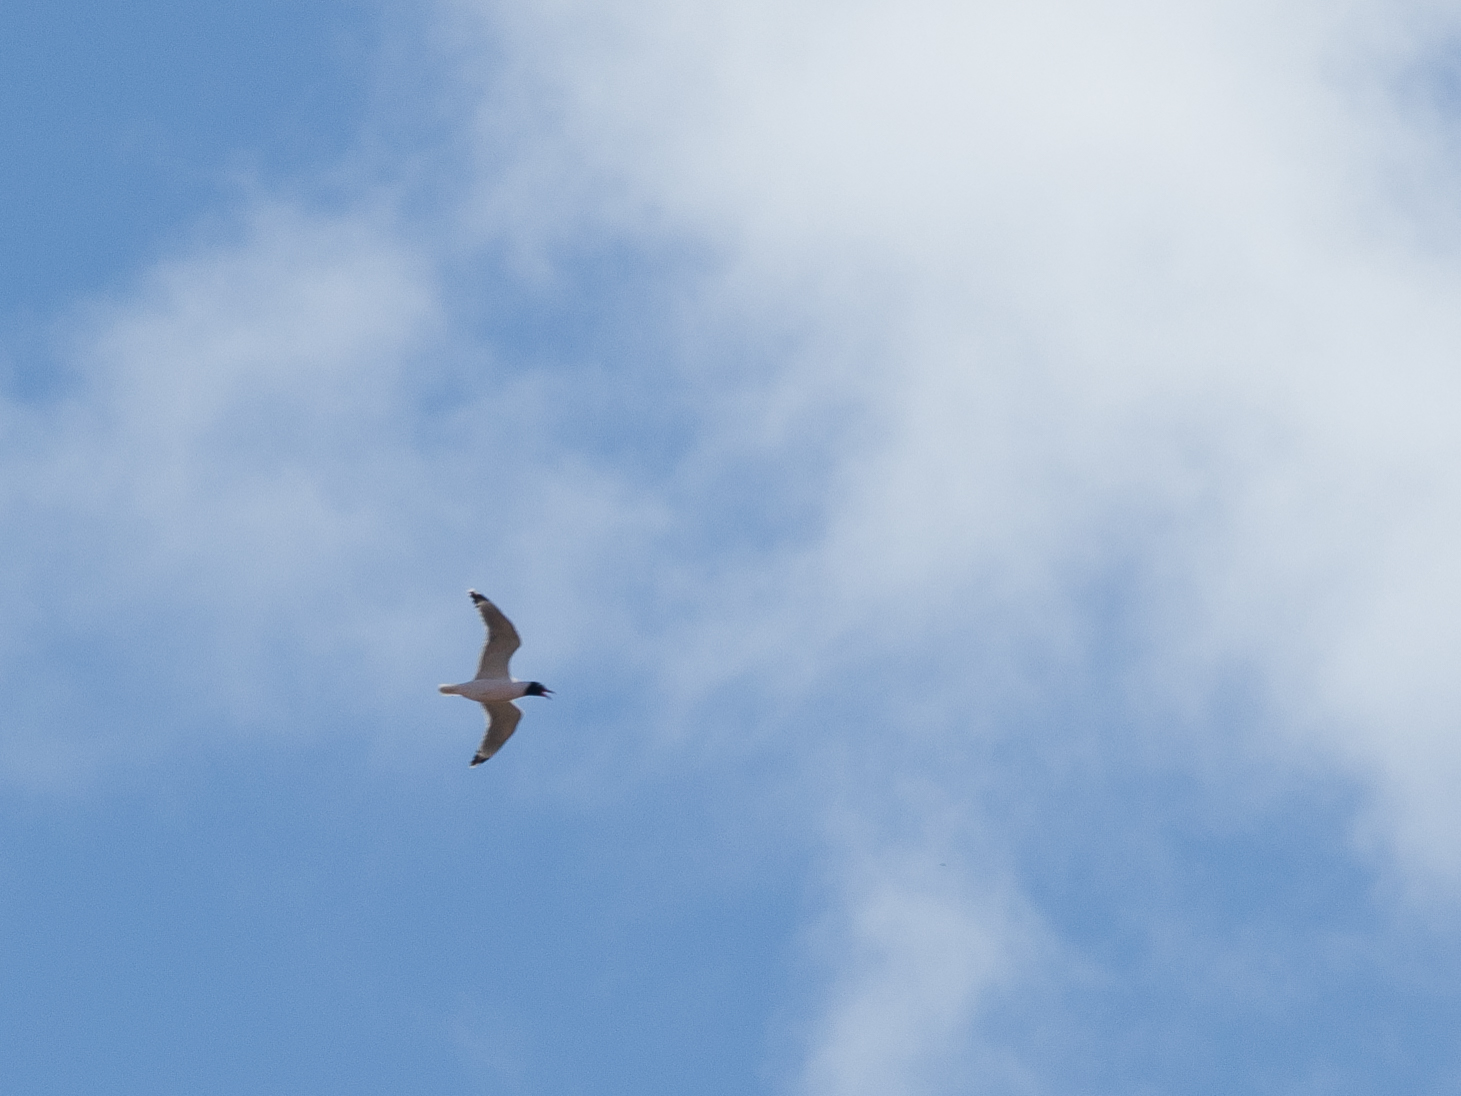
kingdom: Animalia
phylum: Chordata
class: Aves
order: Charadriiformes
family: Laridae
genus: Leucophaeus
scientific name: Leucophaeus pipixcan
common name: Franklin's gull
